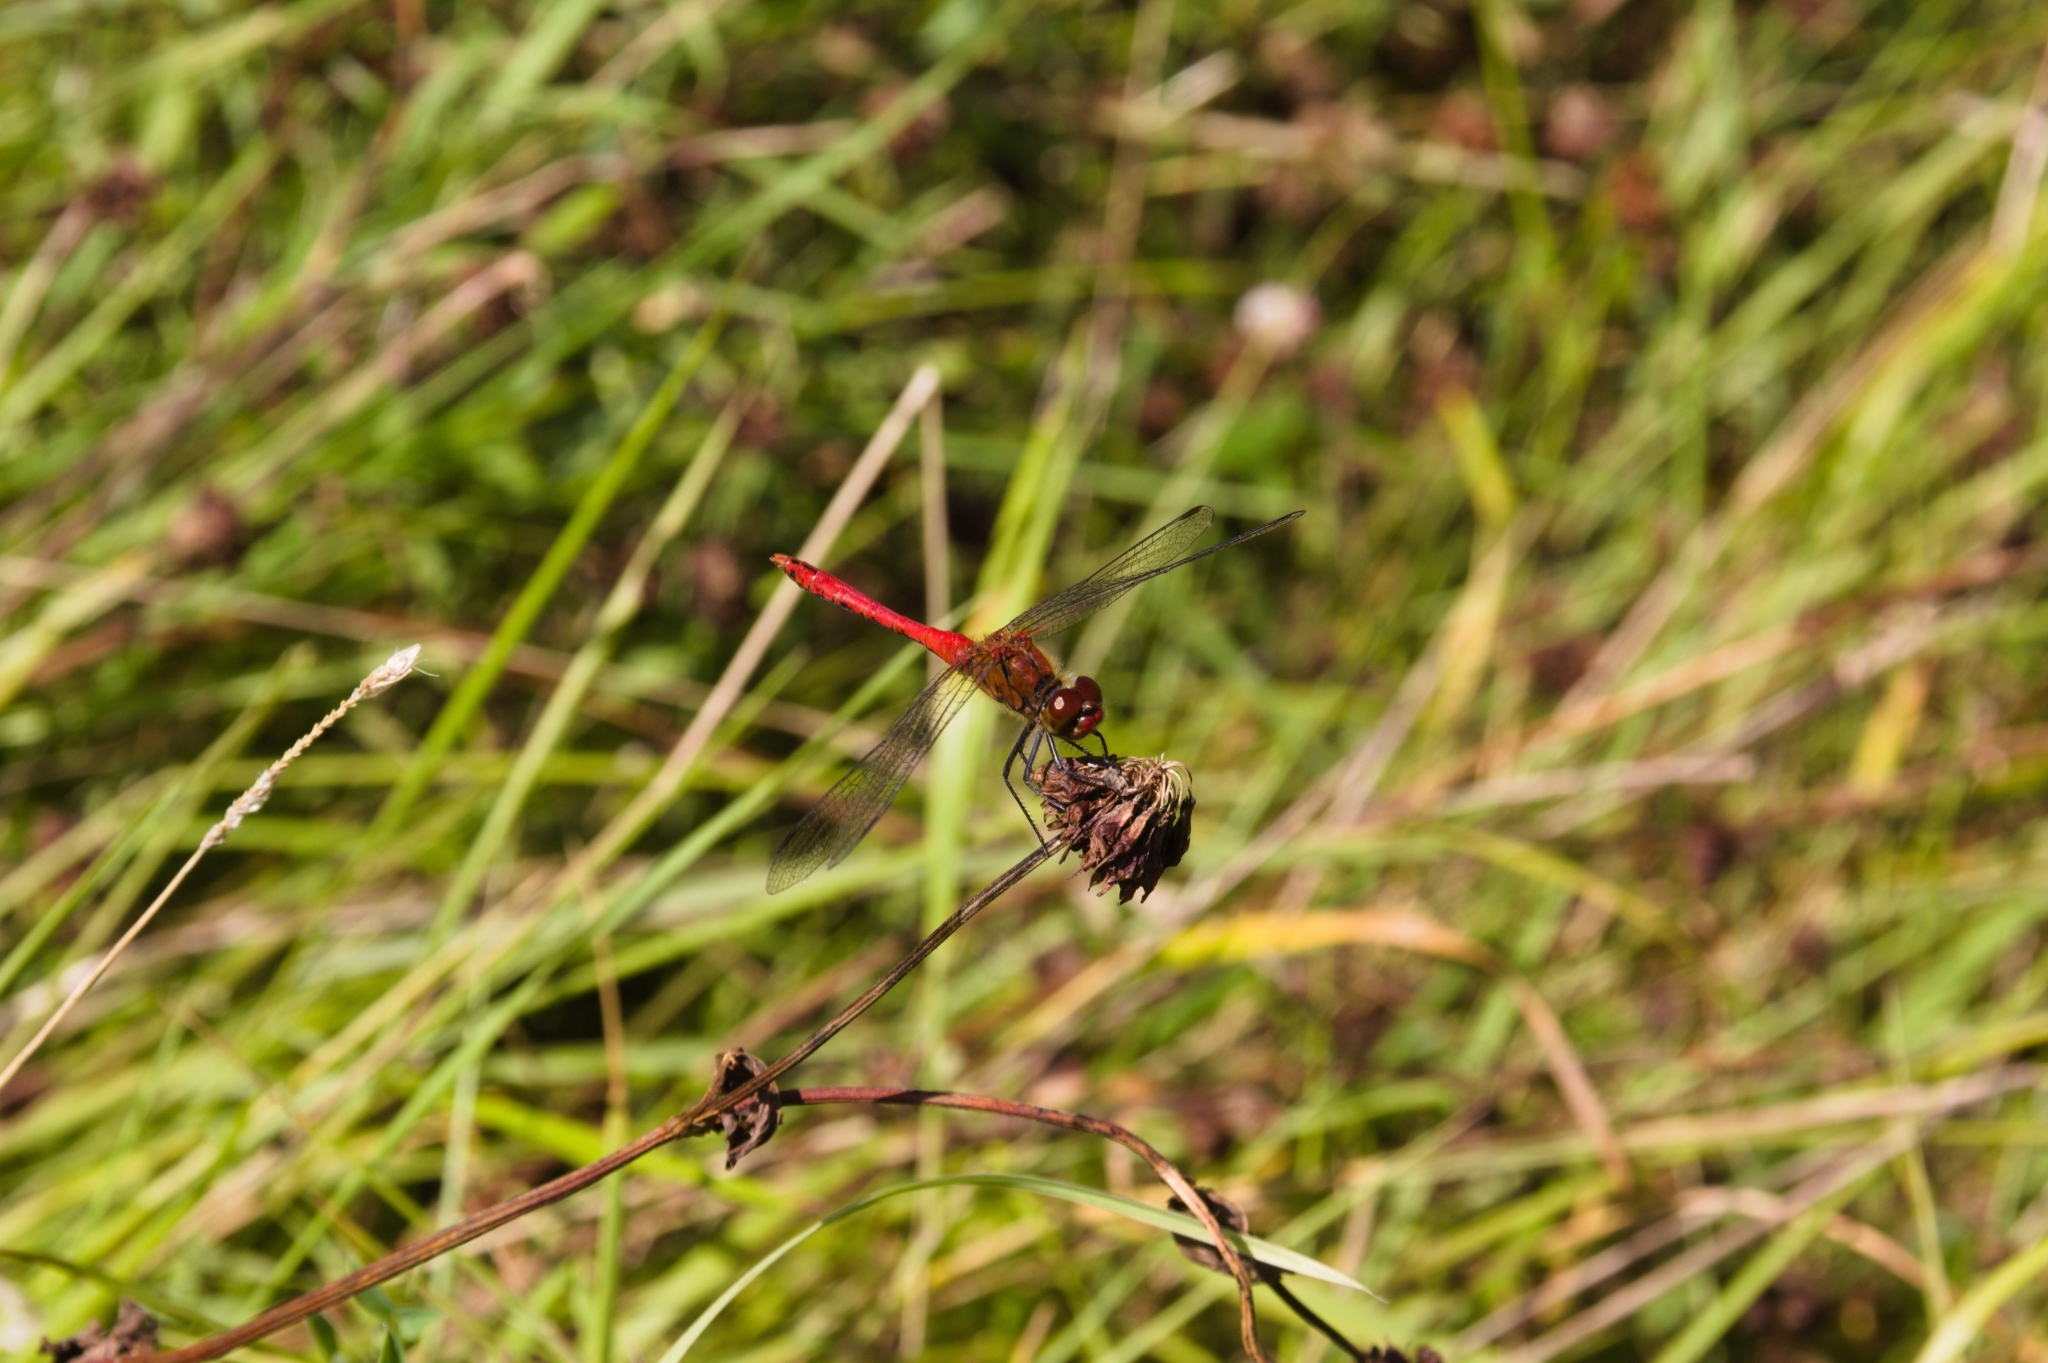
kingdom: Animalia
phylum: Arthropoda
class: Insecta
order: Odonata
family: Libellulidae
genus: Sympetrum
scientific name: Sympetrum sanguineum
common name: Ruddy darter
